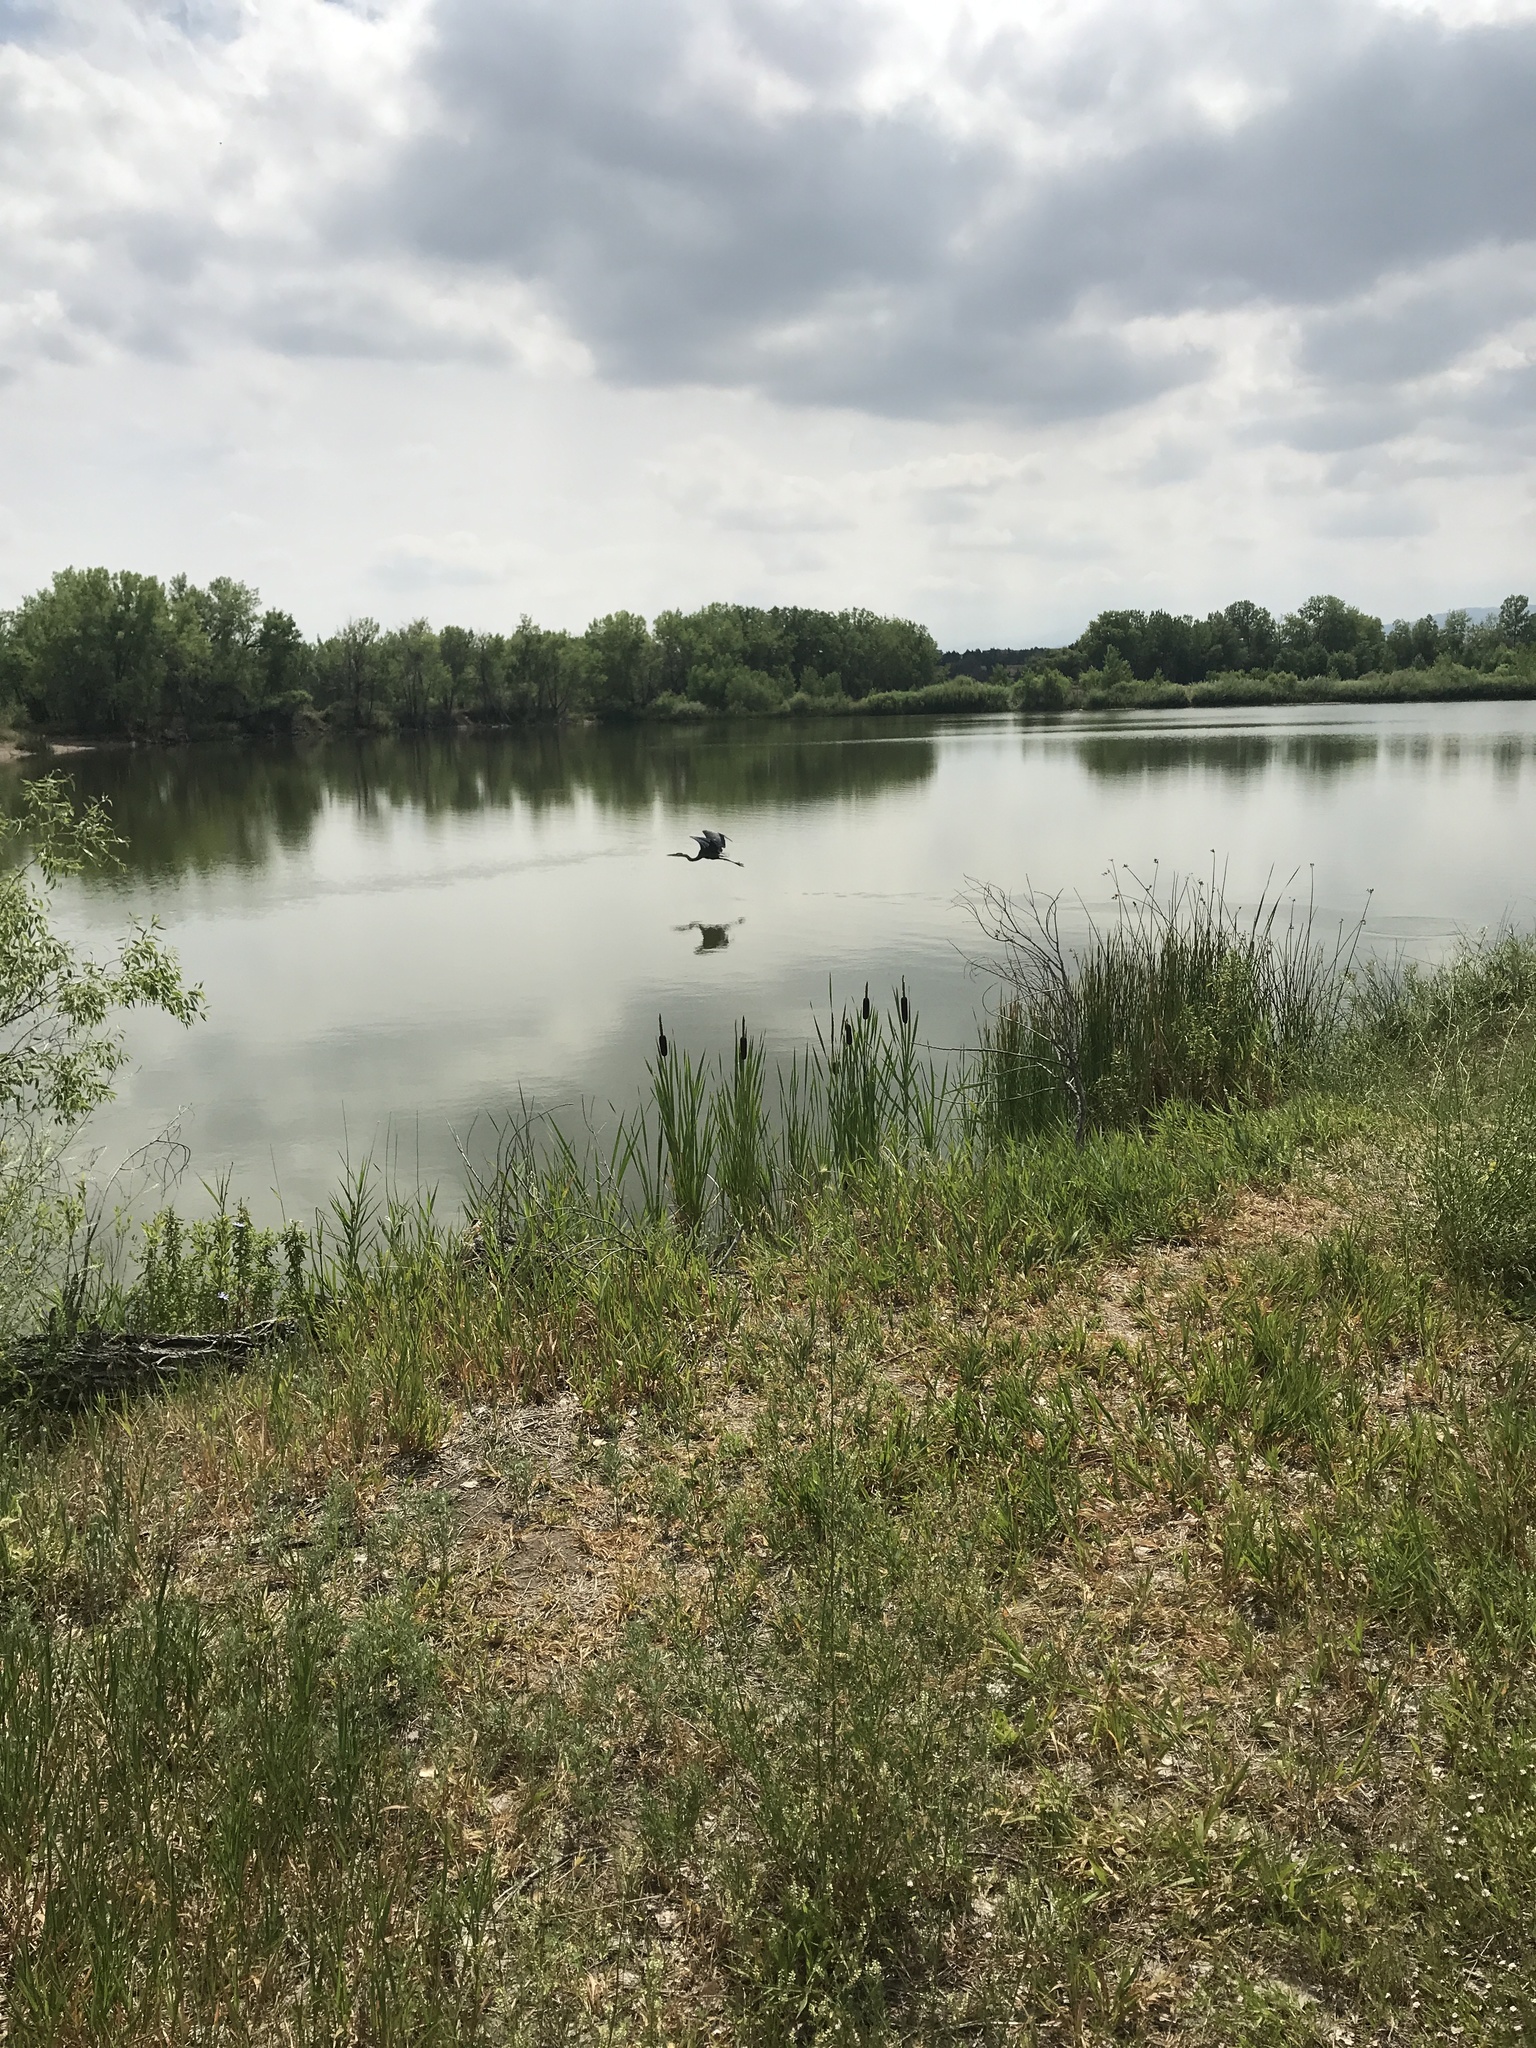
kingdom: Animalia
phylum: Chordata
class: Aves
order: Pelecaniformes
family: Ardeidae
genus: Ardea
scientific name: Ardea herodias
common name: Great blue heron
